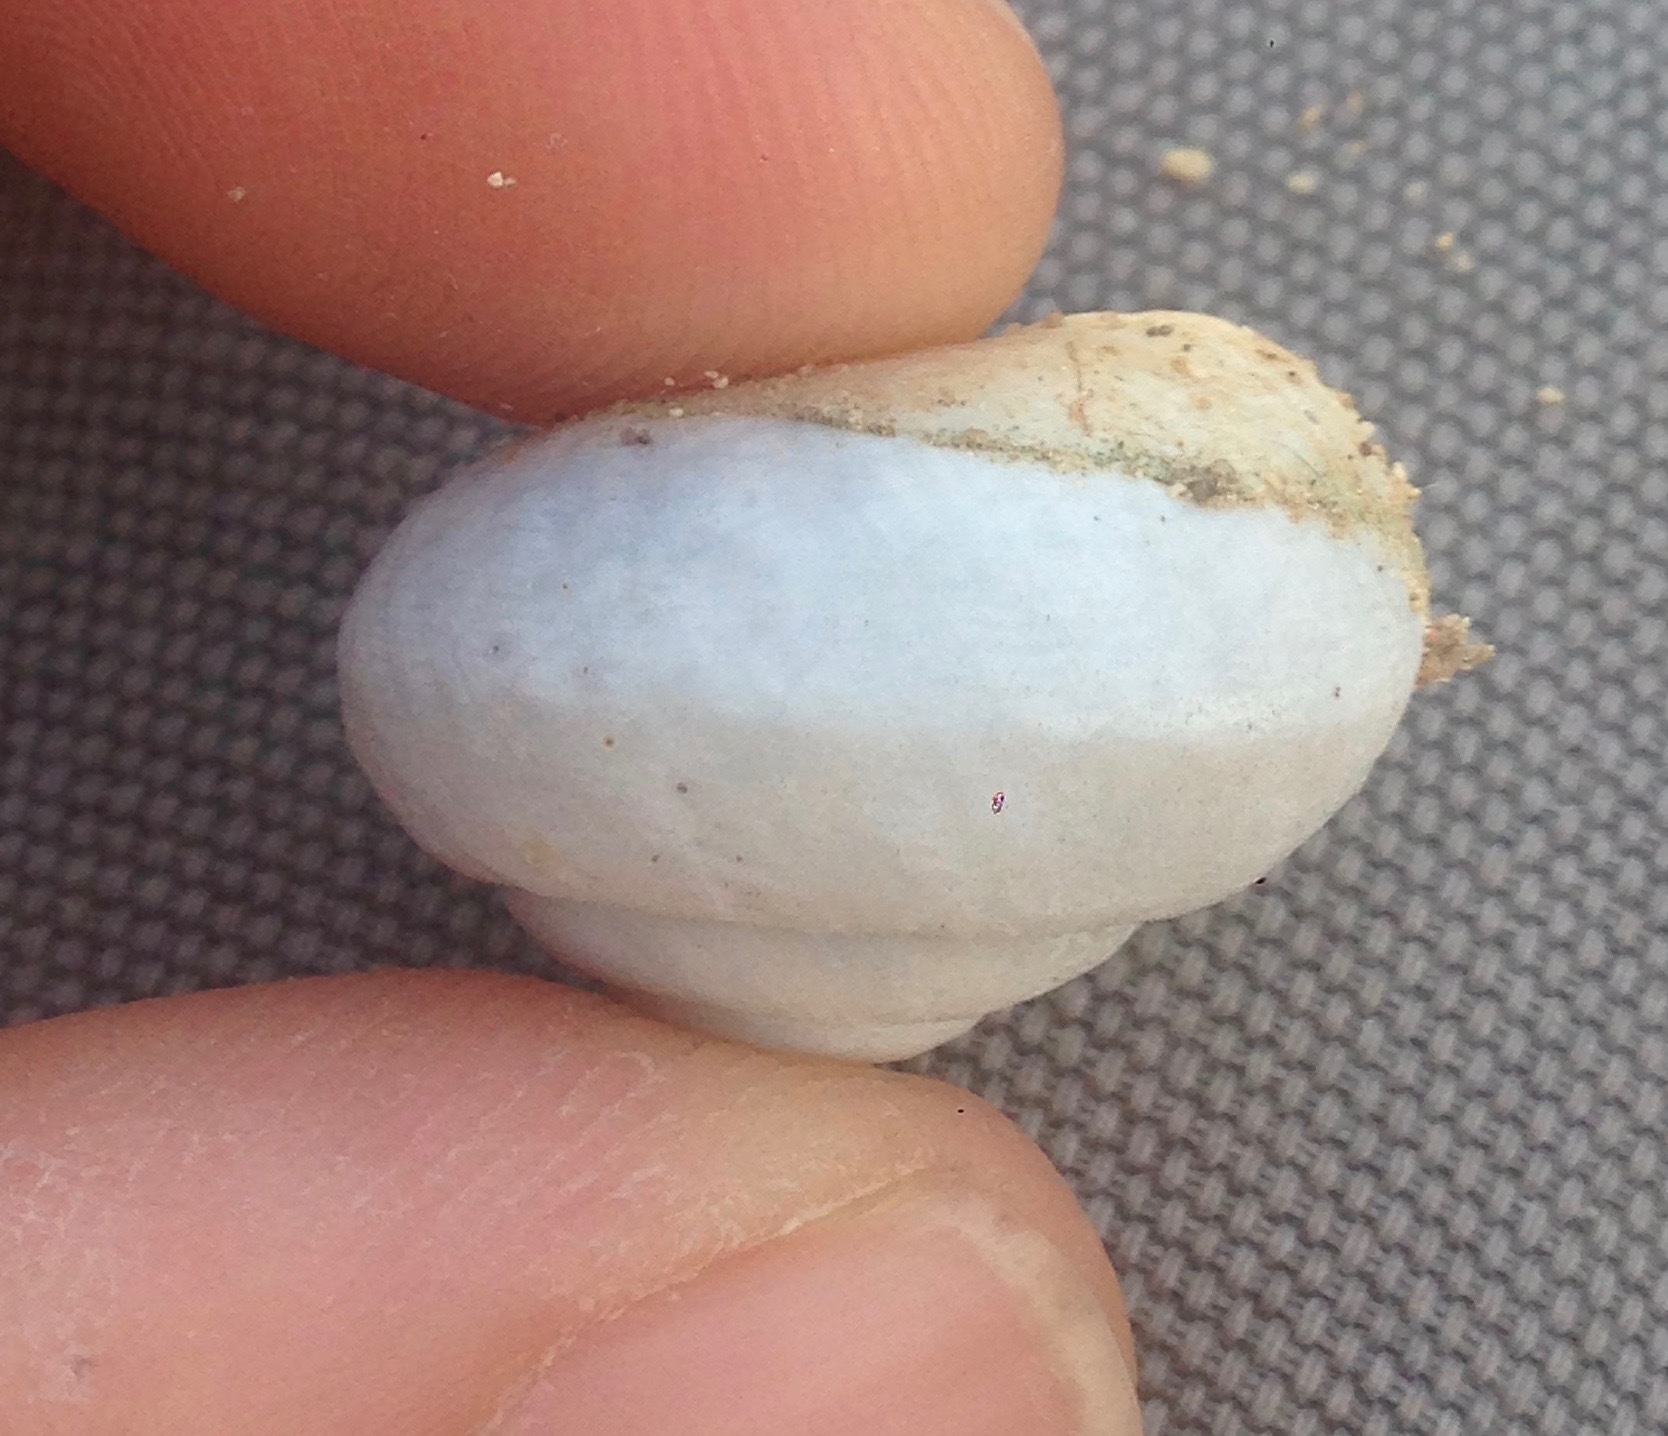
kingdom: Animalia
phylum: Mollusca
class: Gastropoda
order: Stylommatophora
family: Xanthonychidae
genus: Xerarionta
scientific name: Xerarionta tryoni
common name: Bicolor cactus snail
